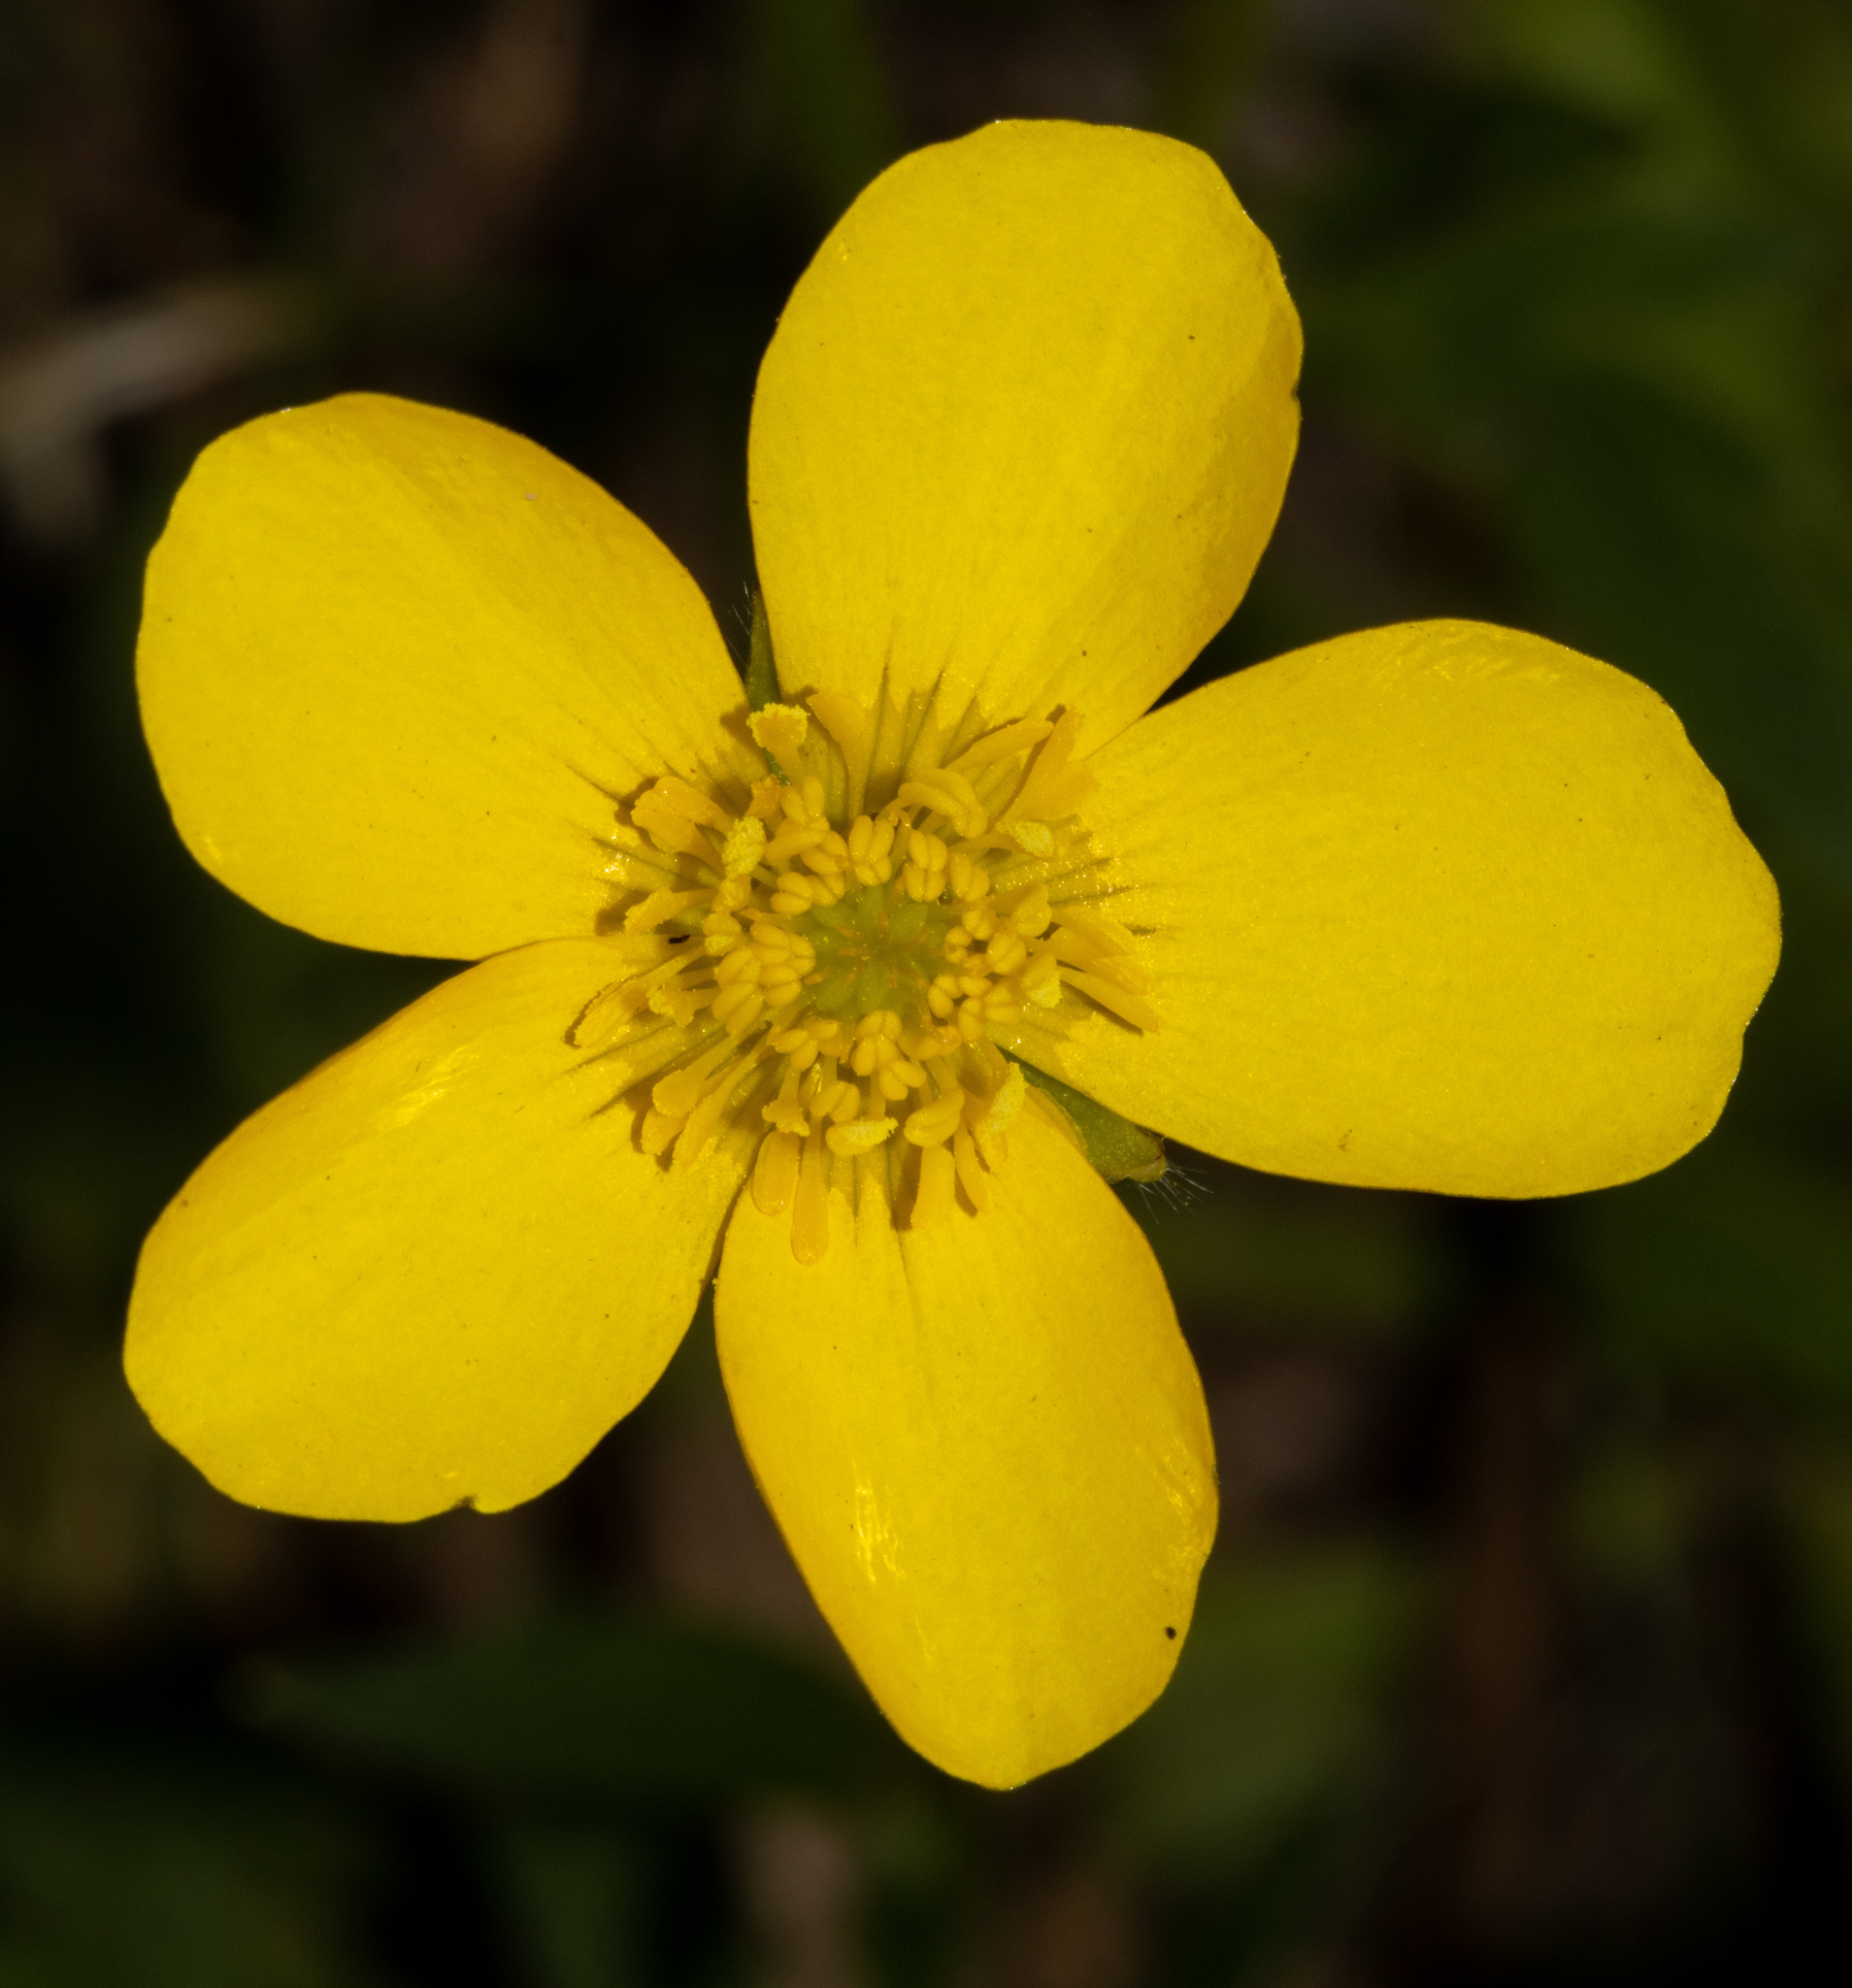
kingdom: Plantae
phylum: Tracheophyta
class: Magnoliopsida
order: Ranunculales
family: Ranunculaceae
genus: Ranunculus
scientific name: Ranunculus lappaceus
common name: Australian buttercup
